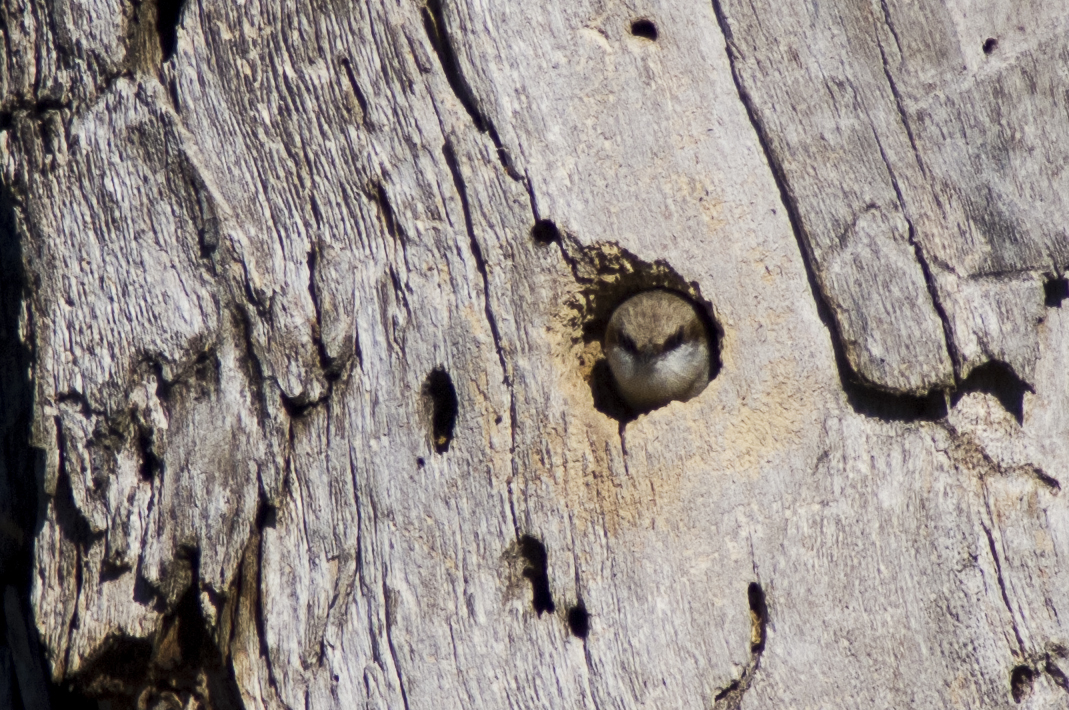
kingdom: Animalia
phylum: Chordata
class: Aves
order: Passeriformes
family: Sittidae
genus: Sitta
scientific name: Sitta pusilla
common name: Brown-headed nuthatch
